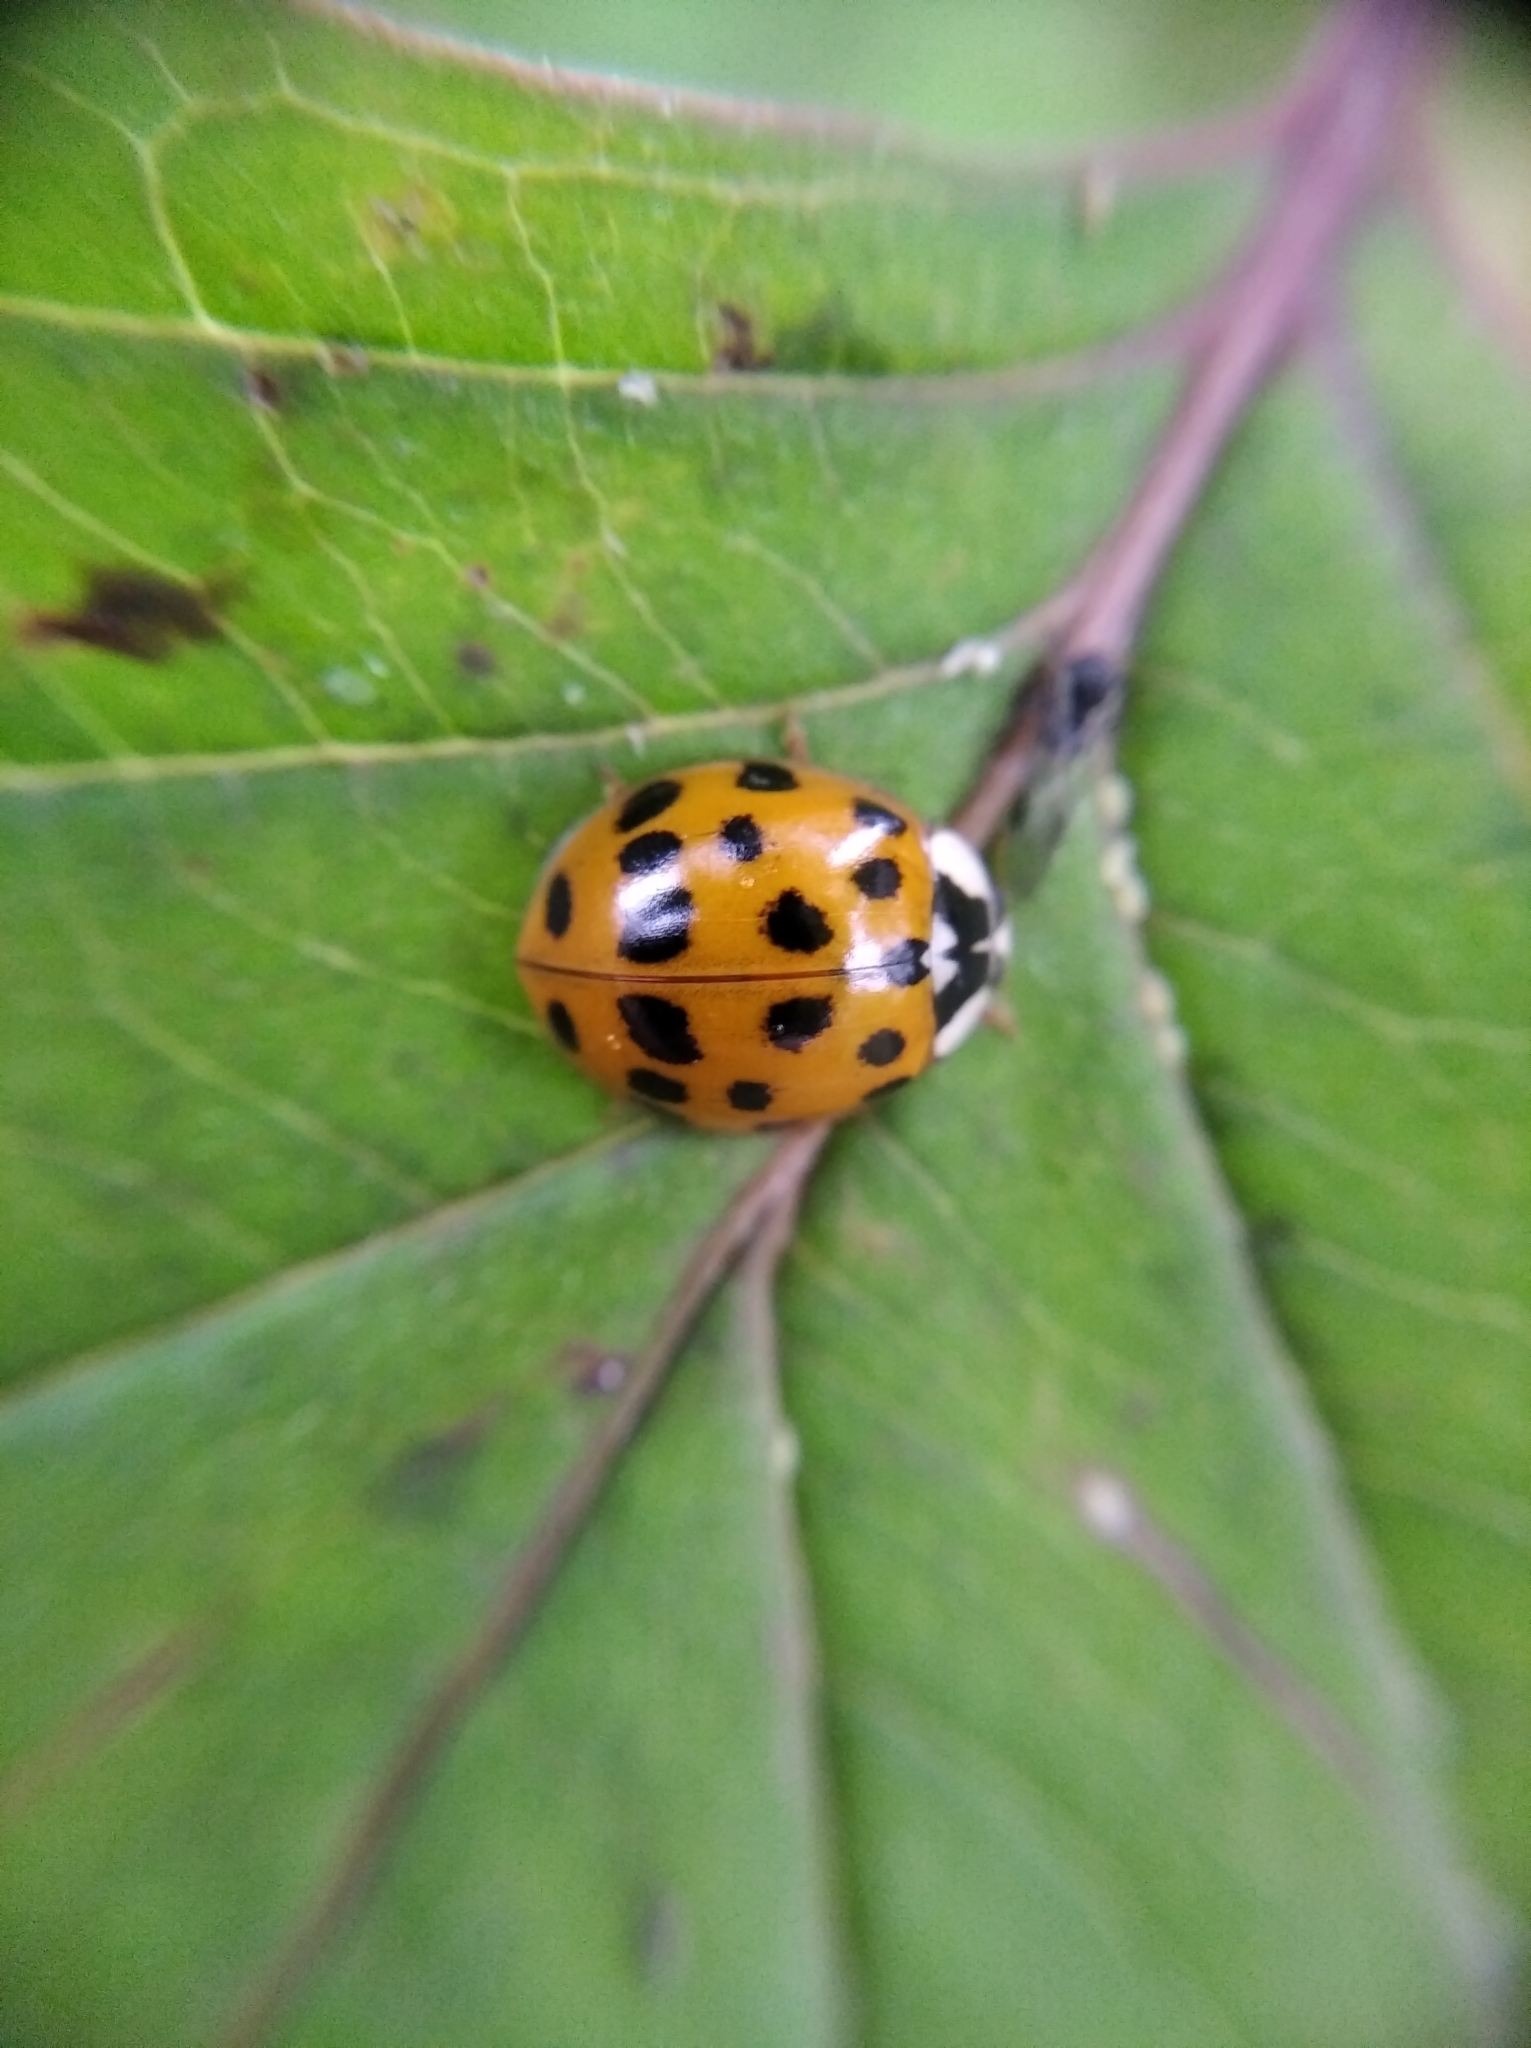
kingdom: Animalia
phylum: Arthropoda
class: Insecta
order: Coleoptera
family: Coccinellidae
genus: Harmonia
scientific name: Harmonia axyridis
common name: Harlequin ladybird
